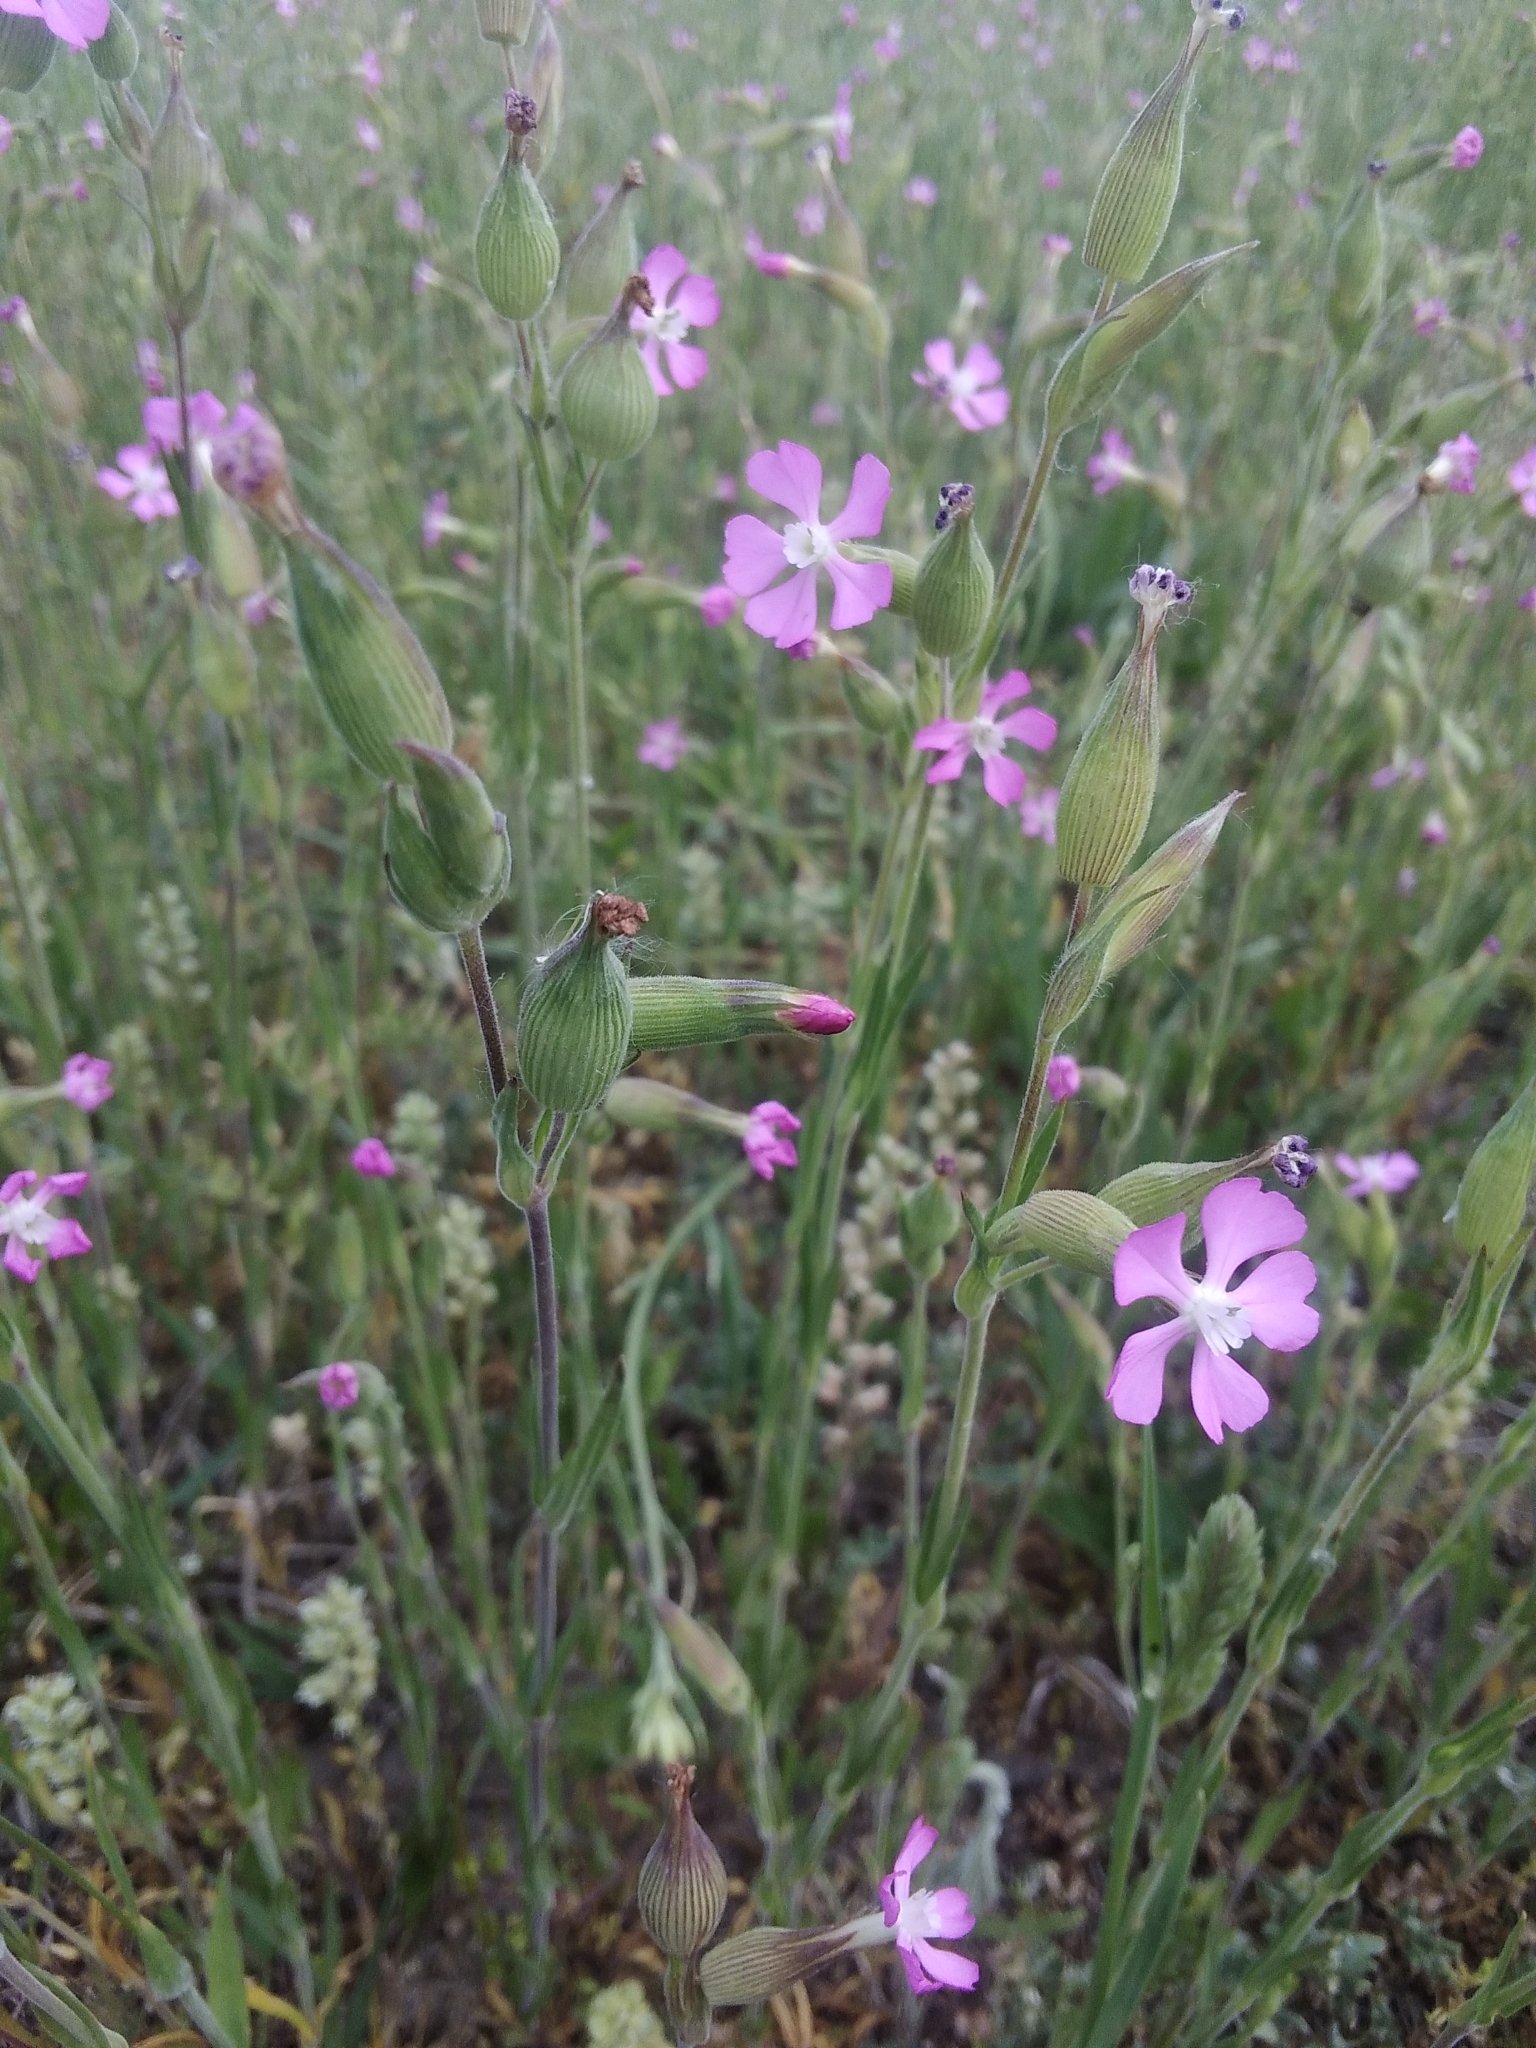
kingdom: Plantae
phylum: Tracheophyta
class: Magnoliopsida
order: Caryophyllales
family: Caryophyllaceae
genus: Silene
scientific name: Silene conica
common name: Sand catchfly
